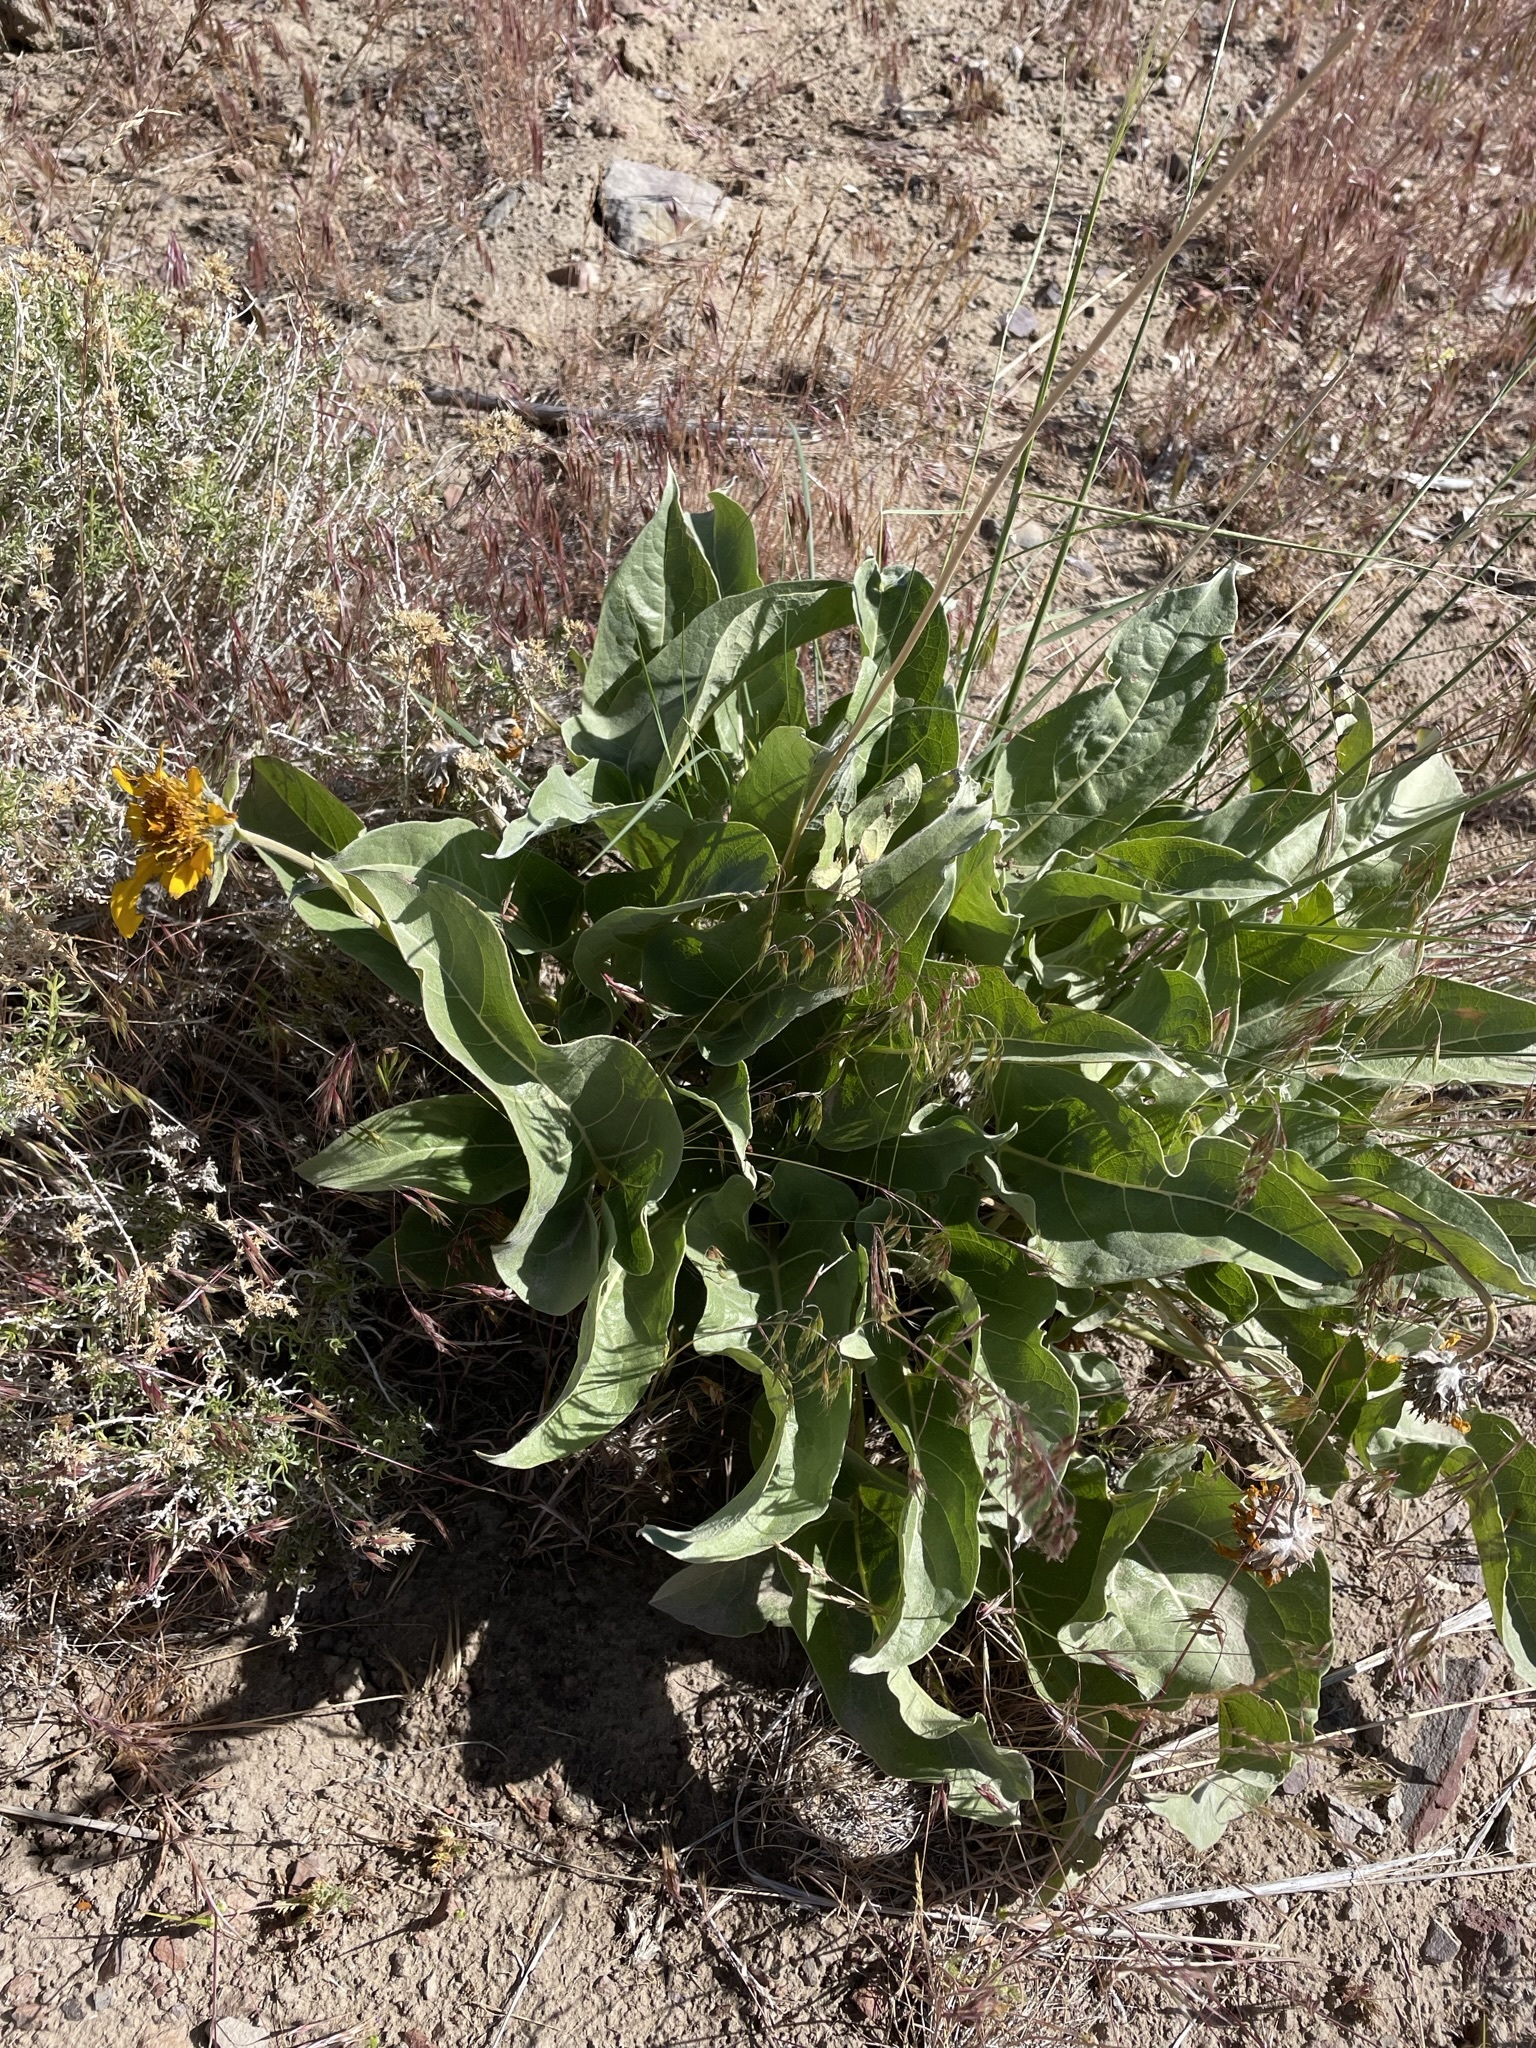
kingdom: Plantae
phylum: Tracheophyta
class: Magnoliopsida
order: Asterales
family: Asteraceae
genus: Wyethia
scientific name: Wyethia sagittata
